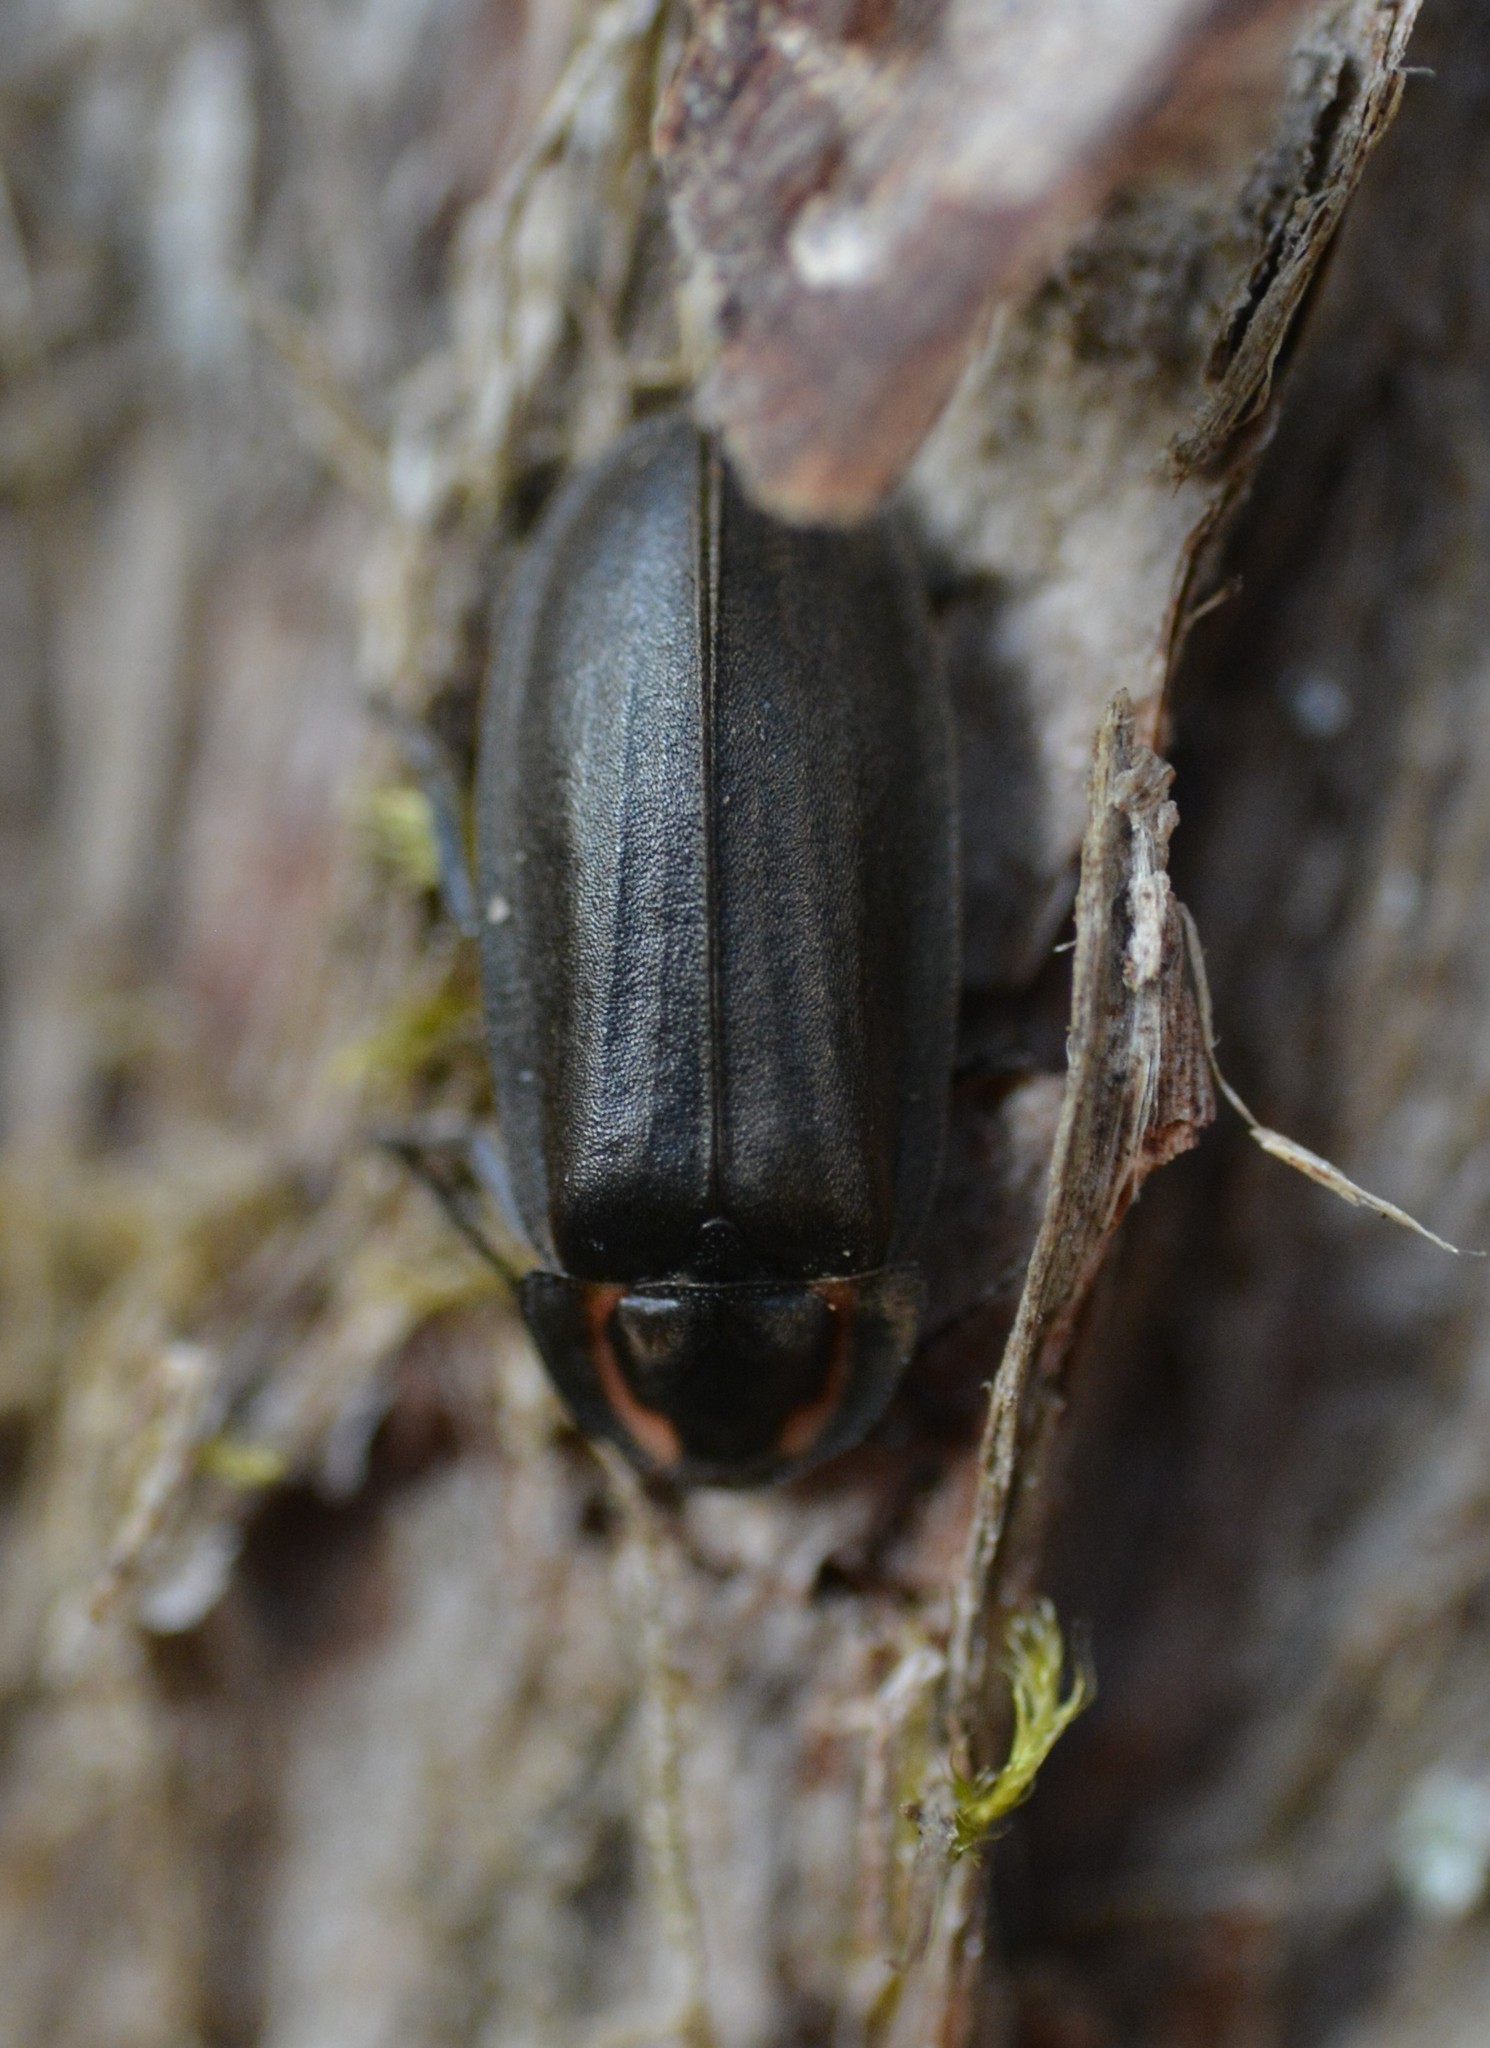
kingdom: Animalia
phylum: Arthropoda
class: Insecta
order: Coleoptera
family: Lampyridae
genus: Photinus
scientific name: Photinus corrusca
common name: Winter firefly
